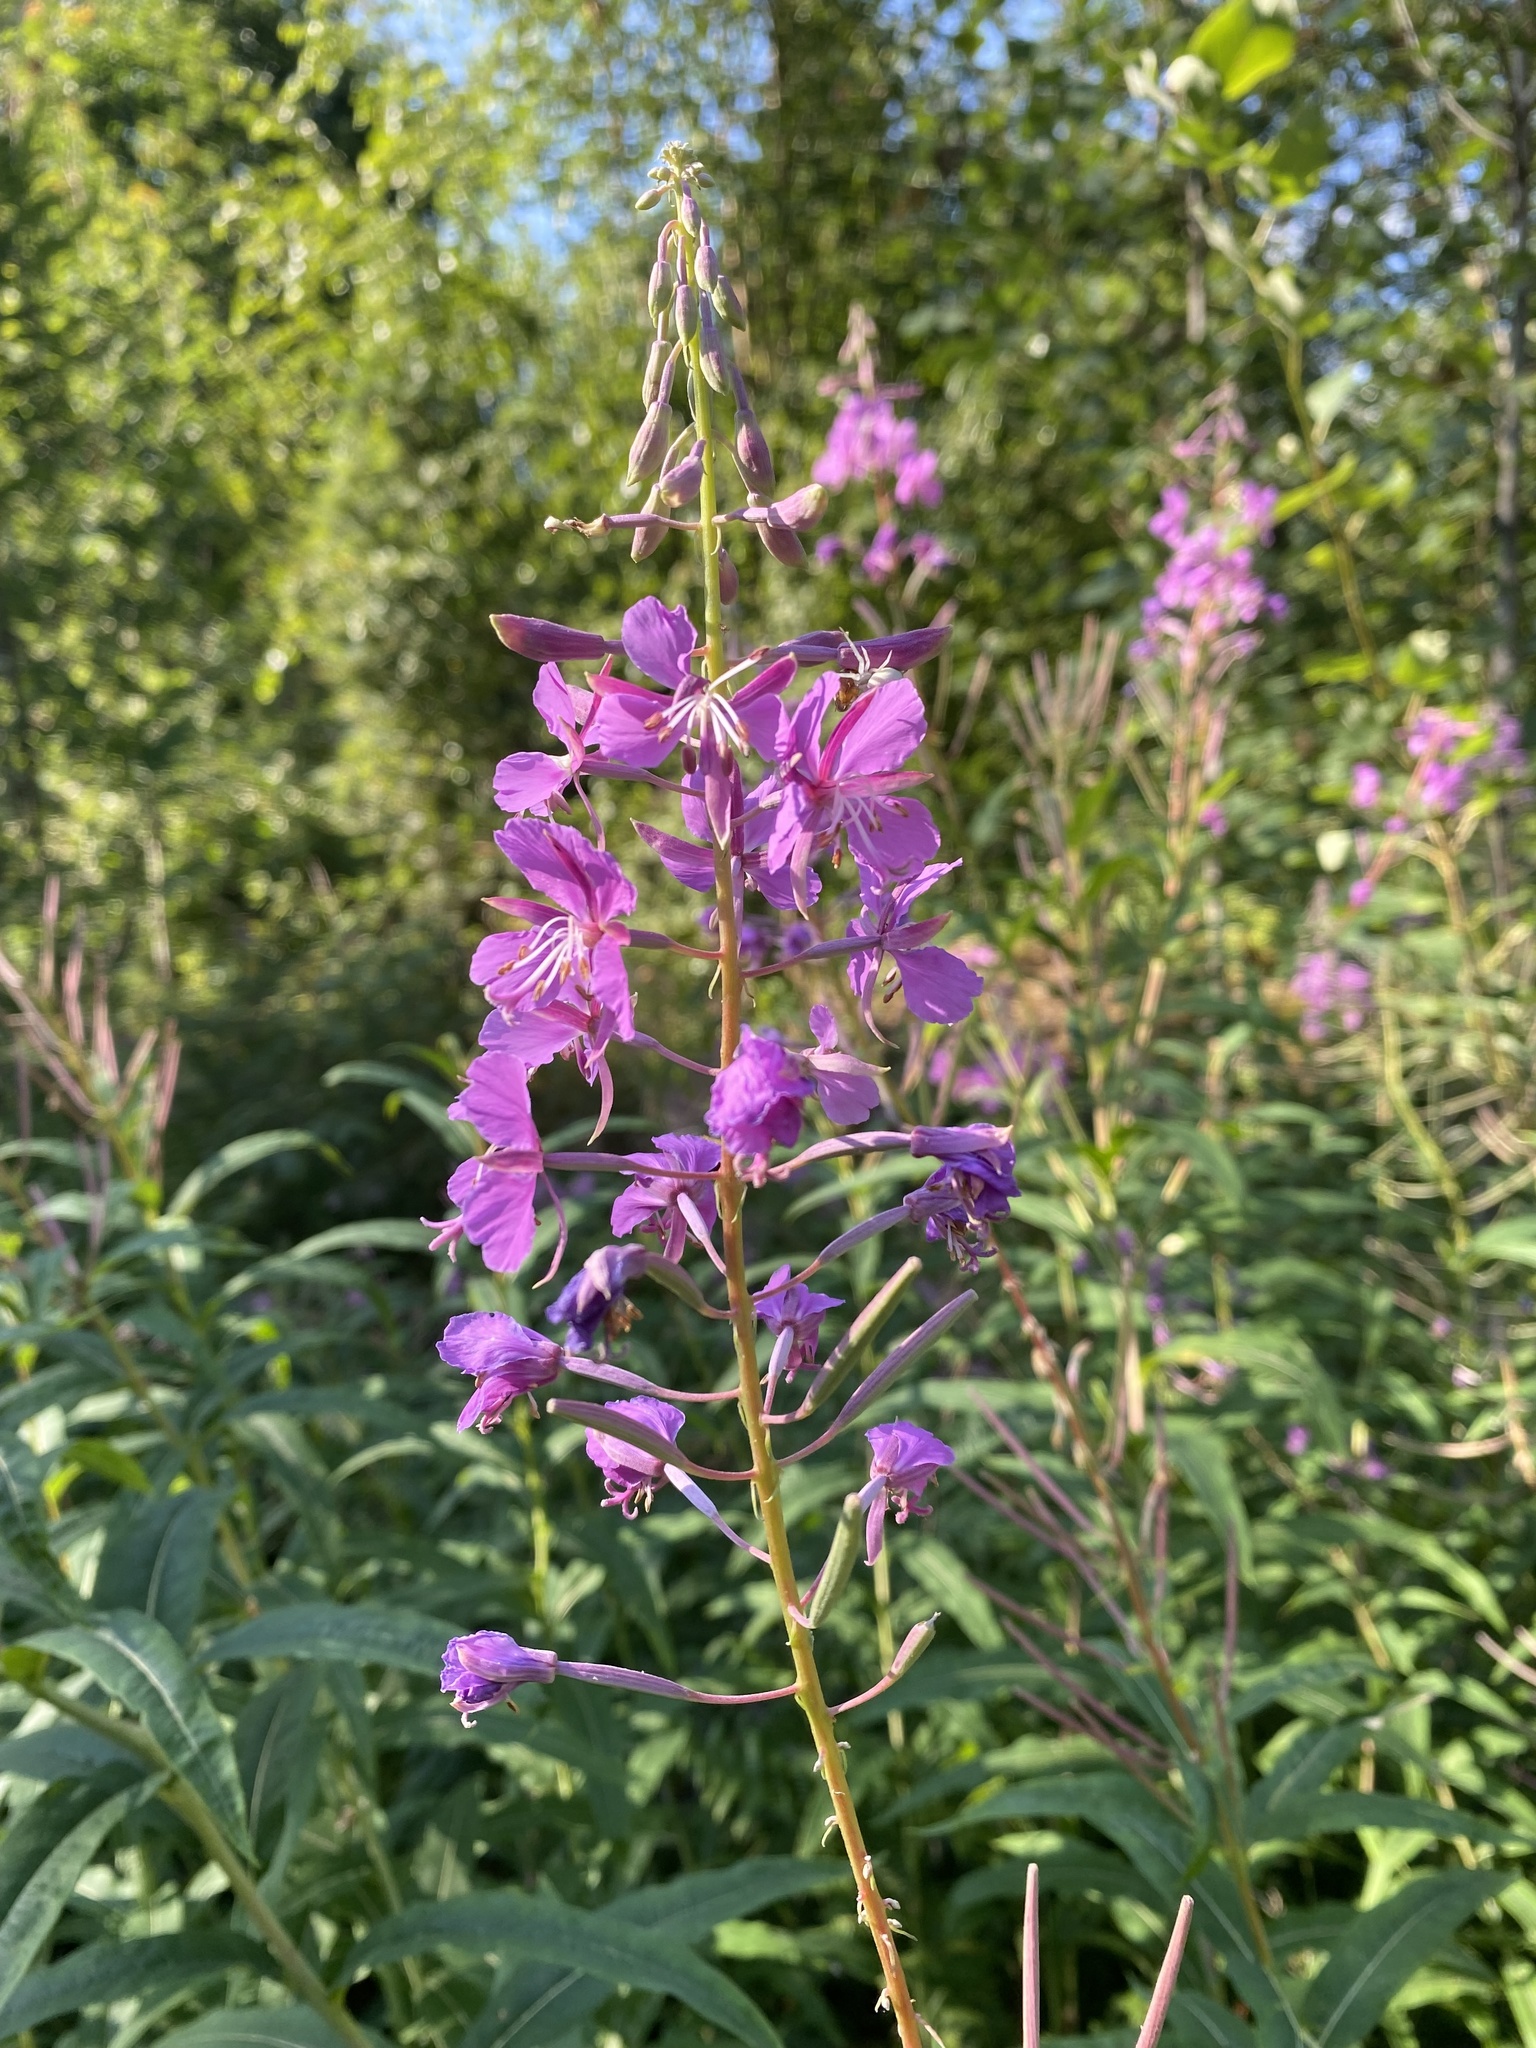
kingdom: Plantae
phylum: Tracheophyta
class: Magnoliopsida
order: Myrtales
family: Onagraceae
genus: Chamaenerion
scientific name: Chamaenerion angustifolium
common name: Fireweed
